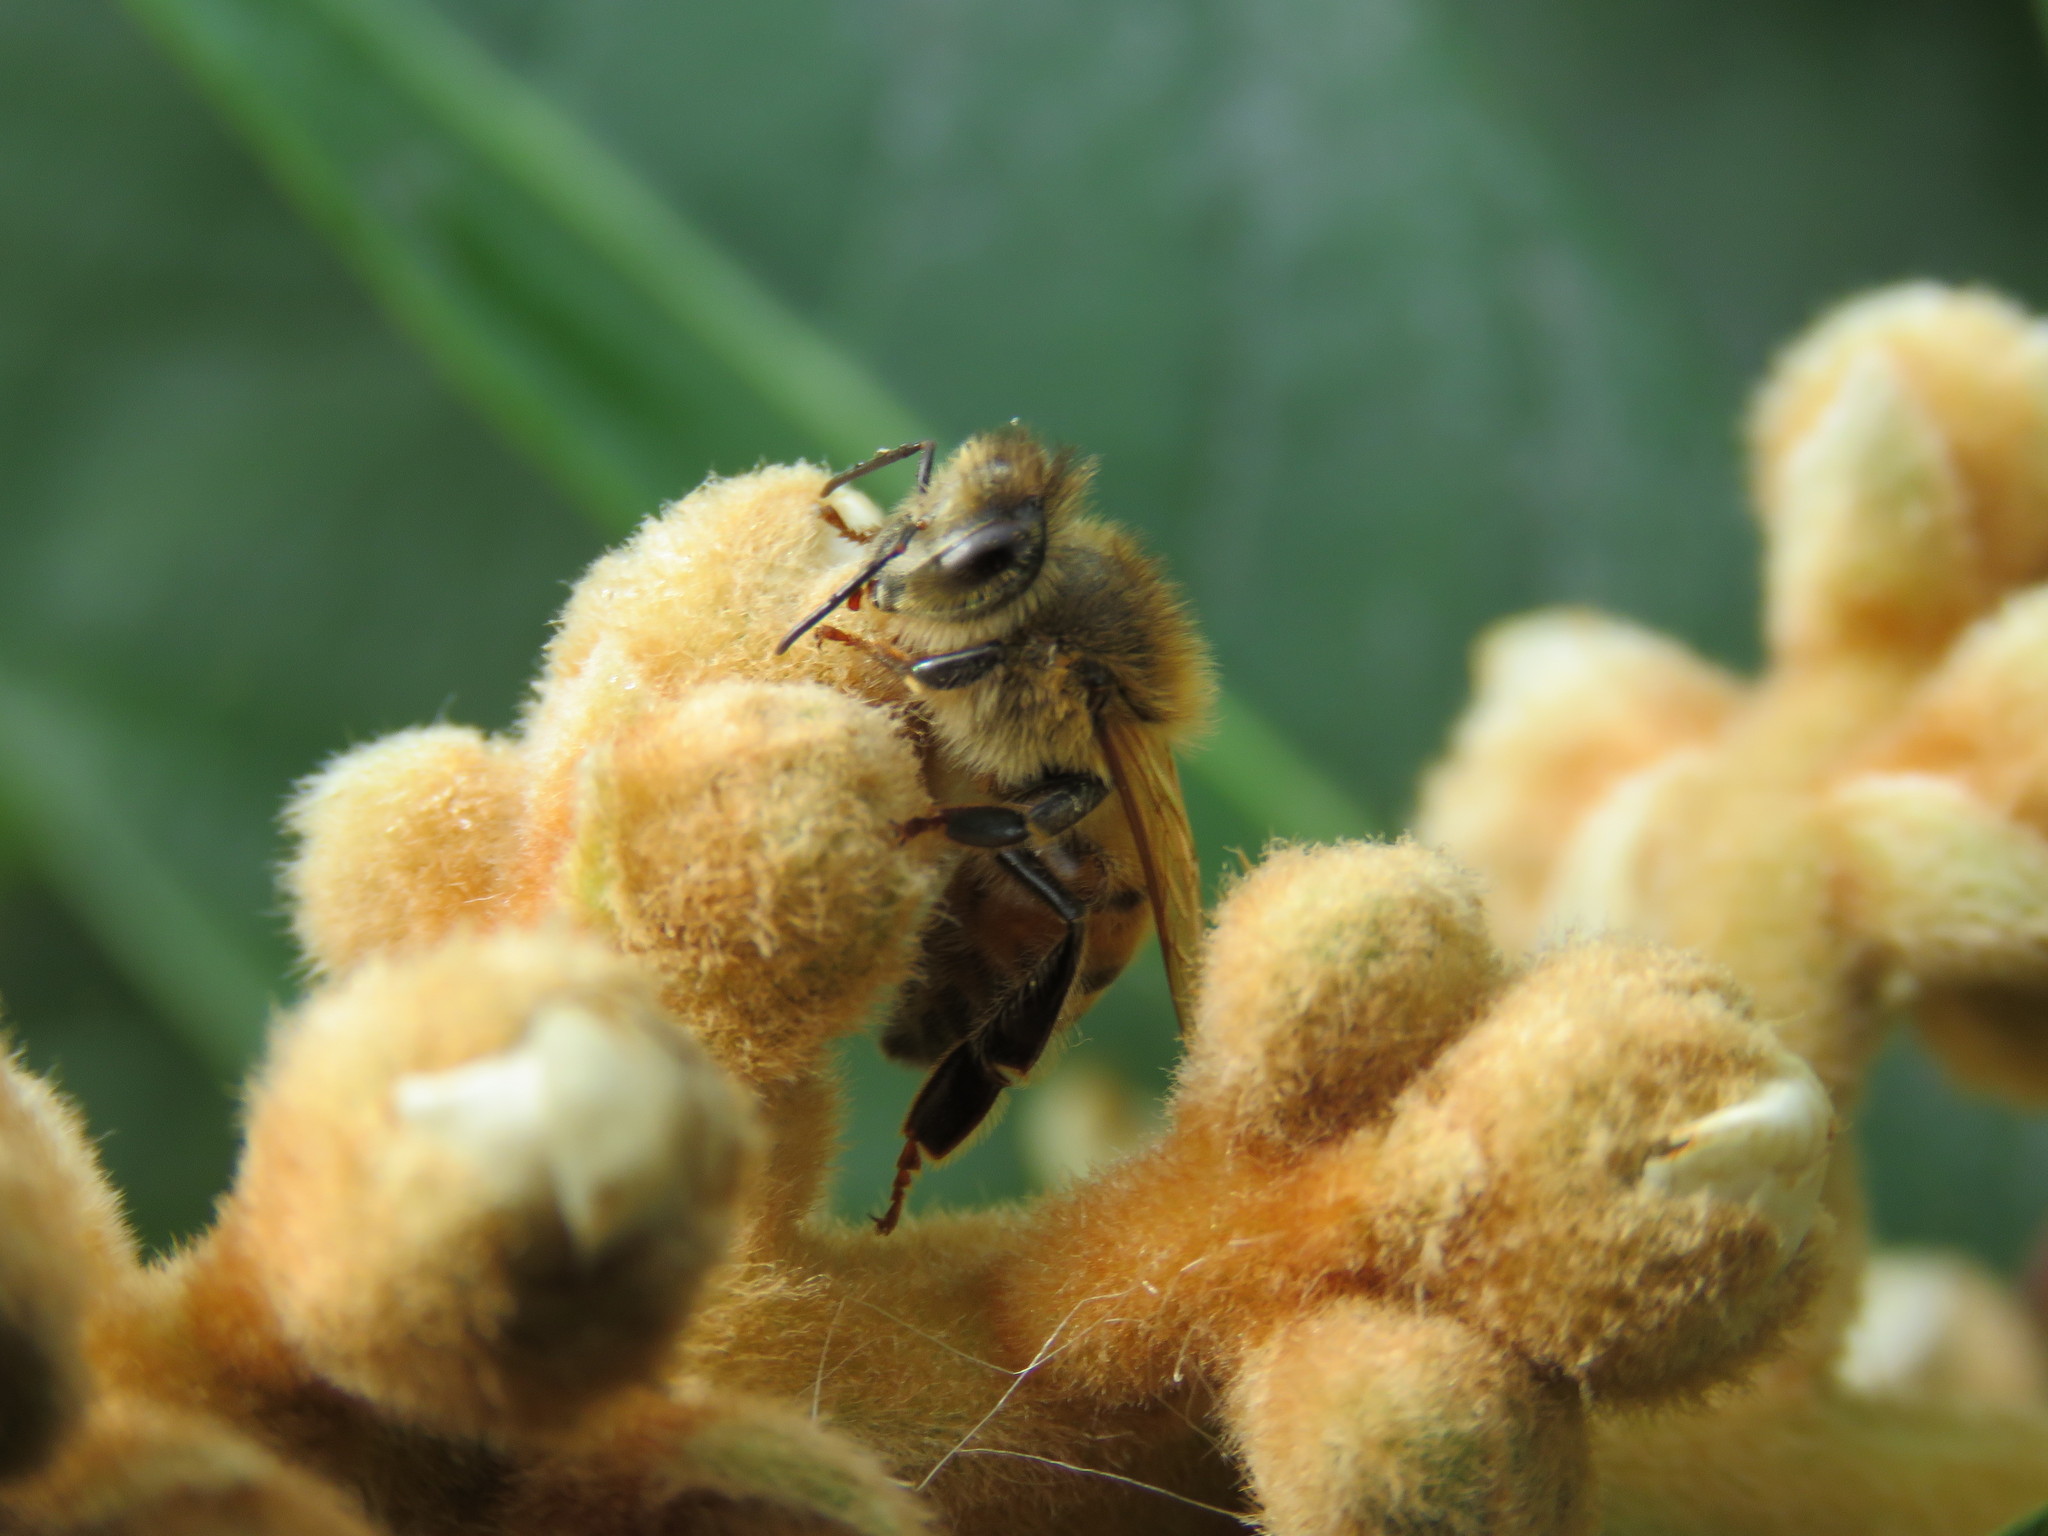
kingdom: Animalia
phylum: Arthropoda
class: Insecta
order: Hymenoptera
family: Apidae
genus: Apis
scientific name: Apis mellifera
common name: Honey bee
